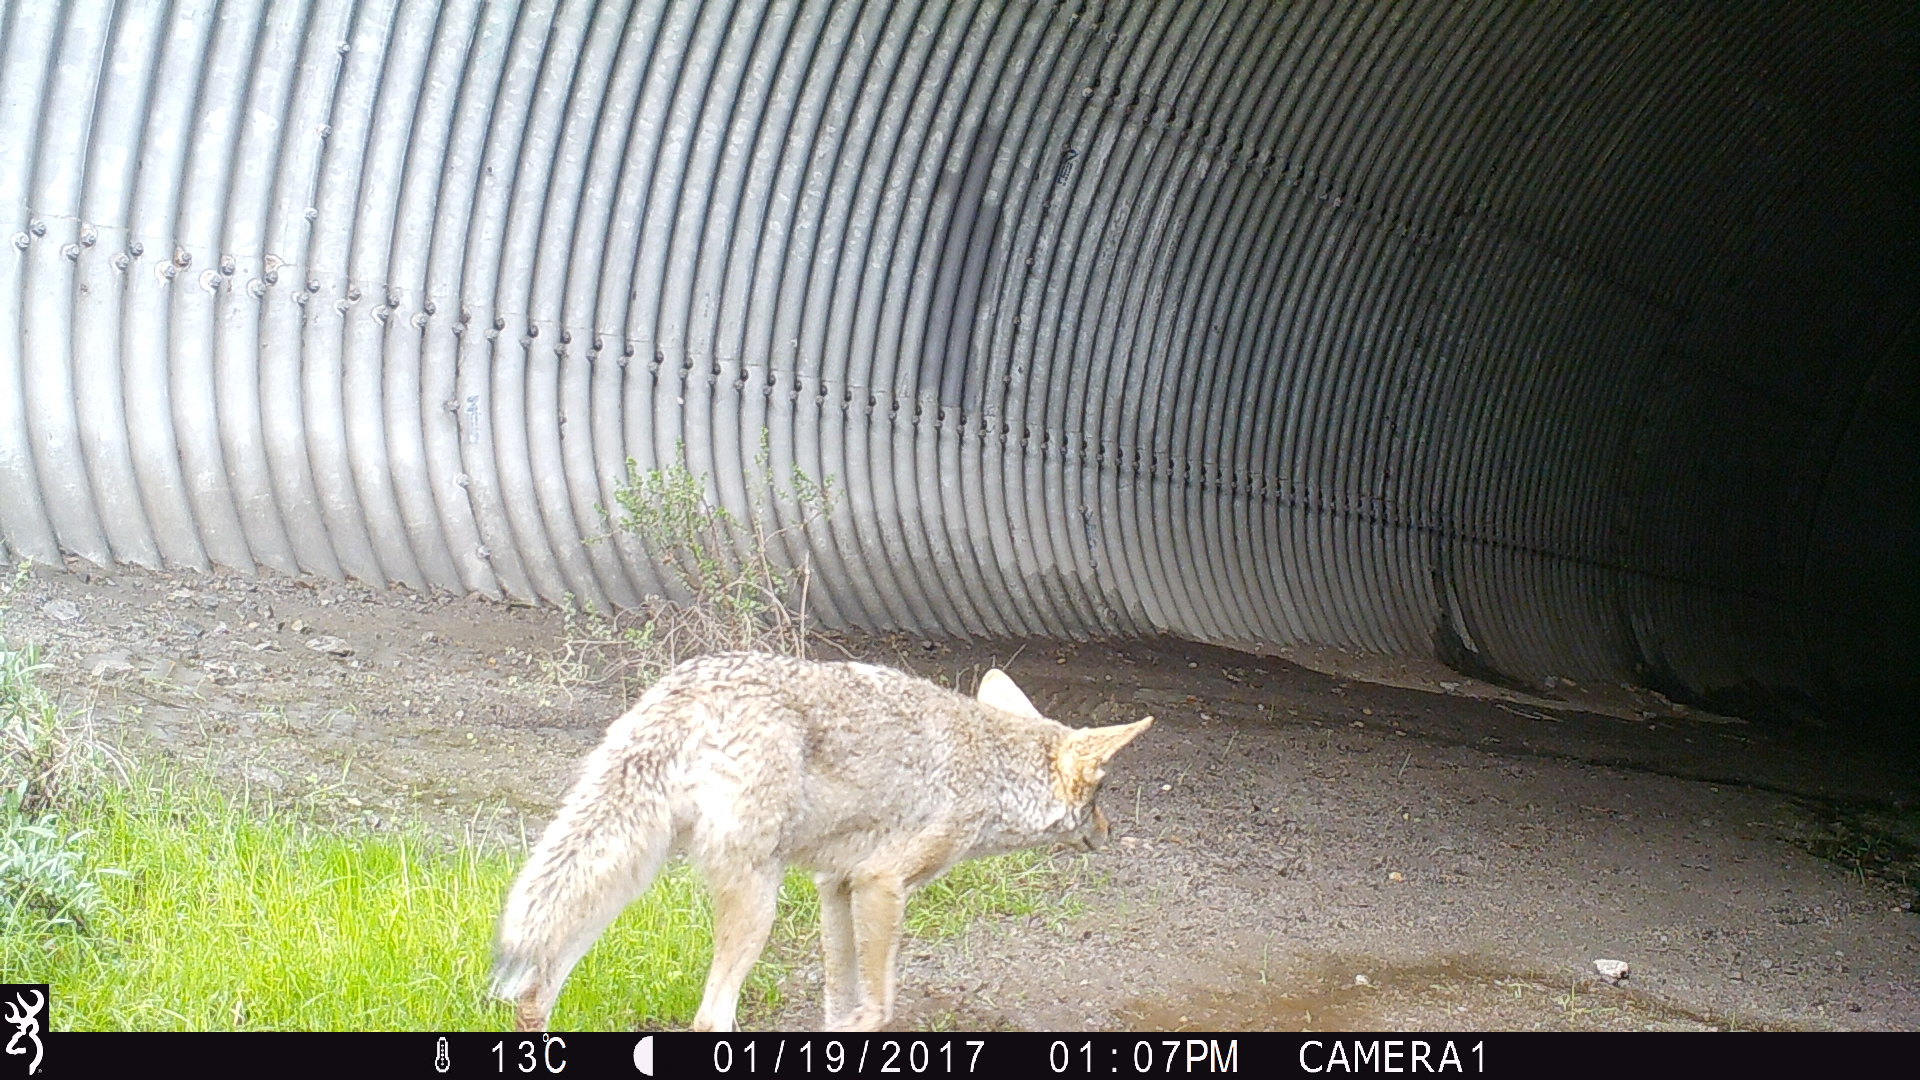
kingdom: Animalia
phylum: Chordata
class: Mammalia
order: Carnivora
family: Canidae
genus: Canis
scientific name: Canis latrans
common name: Coyote
